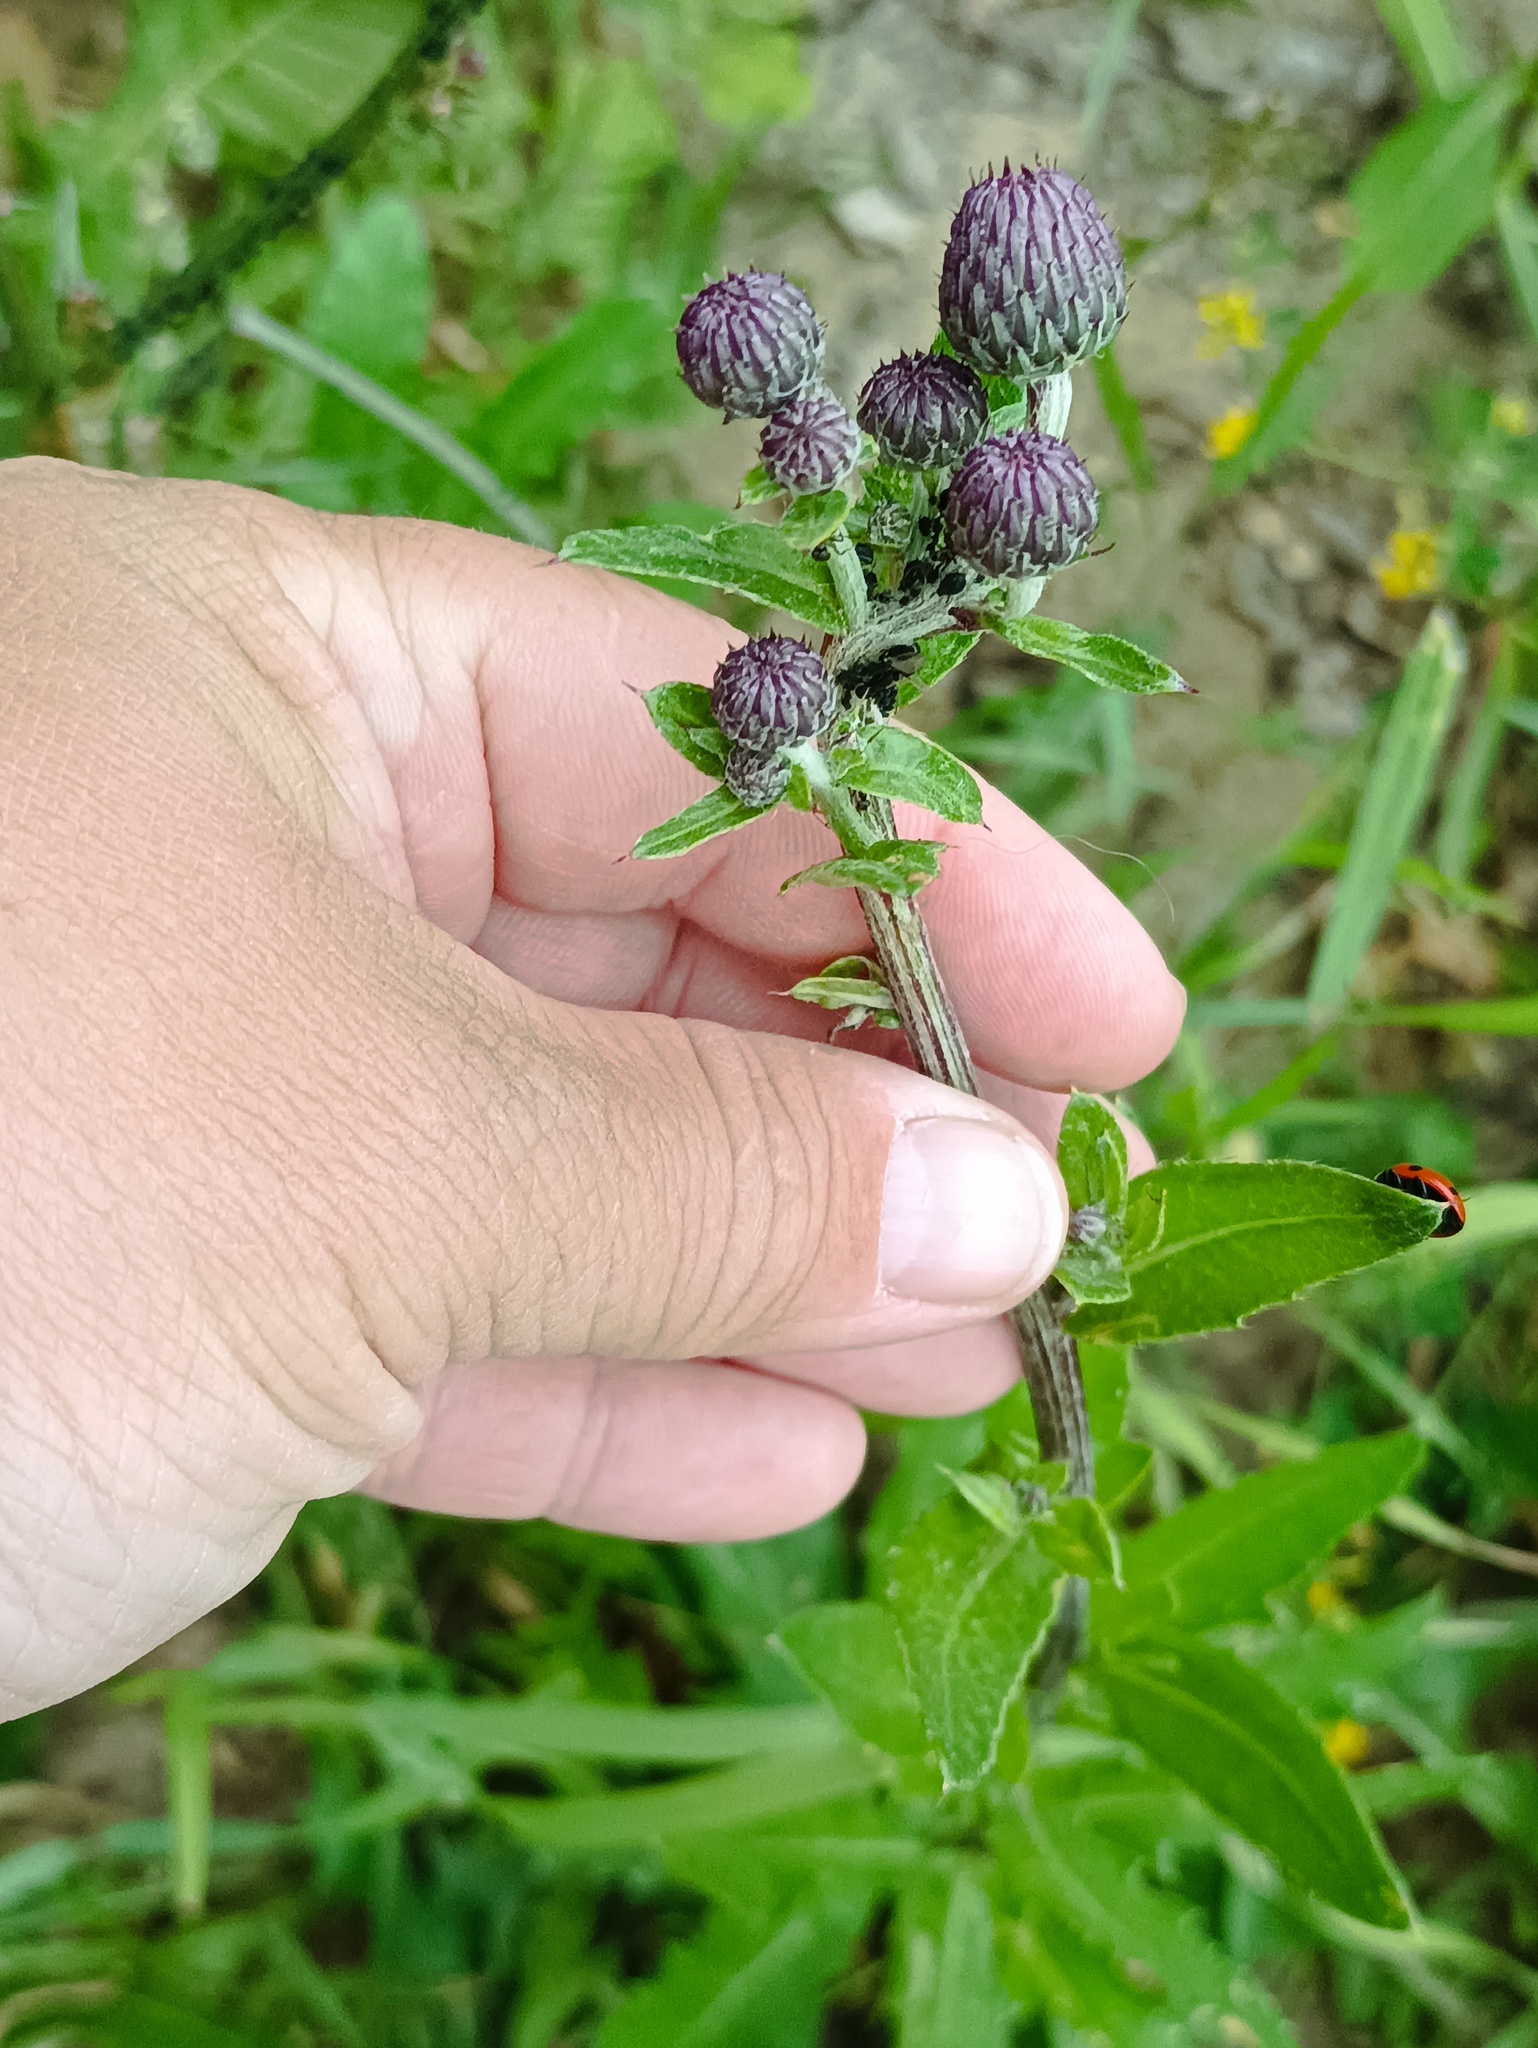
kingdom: Plantae
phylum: Tracheophyta
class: Magnoliopsida
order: Asterales
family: Asteraceae
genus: Cirsium
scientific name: Cirsium arvense
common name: Creeping thistle
